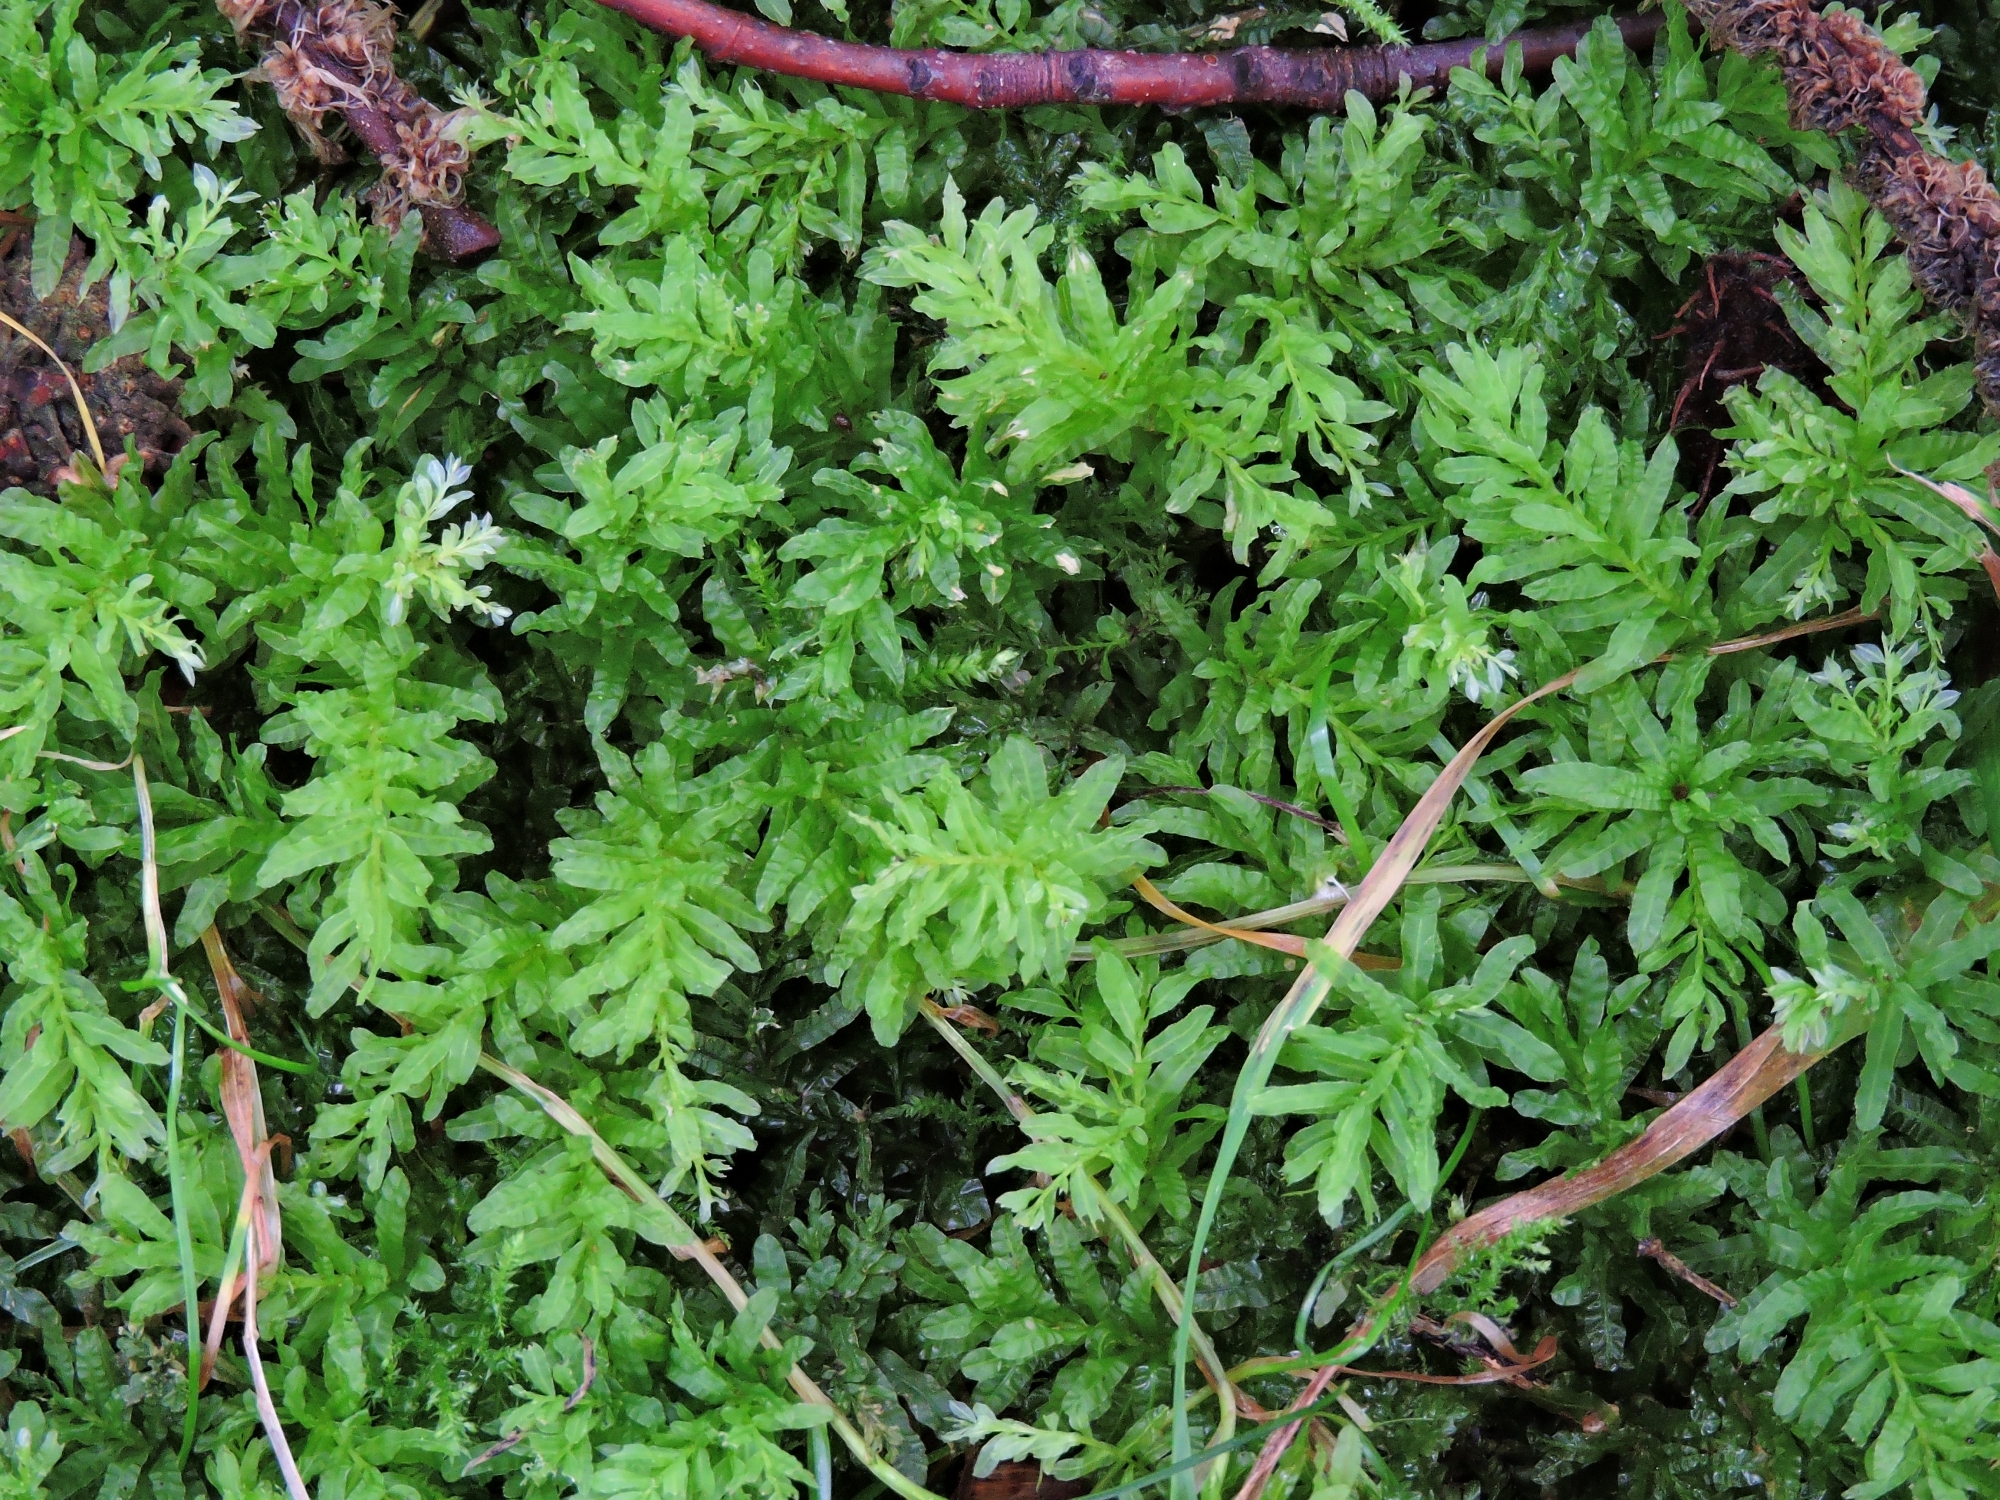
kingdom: Plantae
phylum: Bryophyta
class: Bryopsida
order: Bryales
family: Mniaceae
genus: Plagiomnium
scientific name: Plagiomnium undulatum
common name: Hart's-tongue thyme-moss
